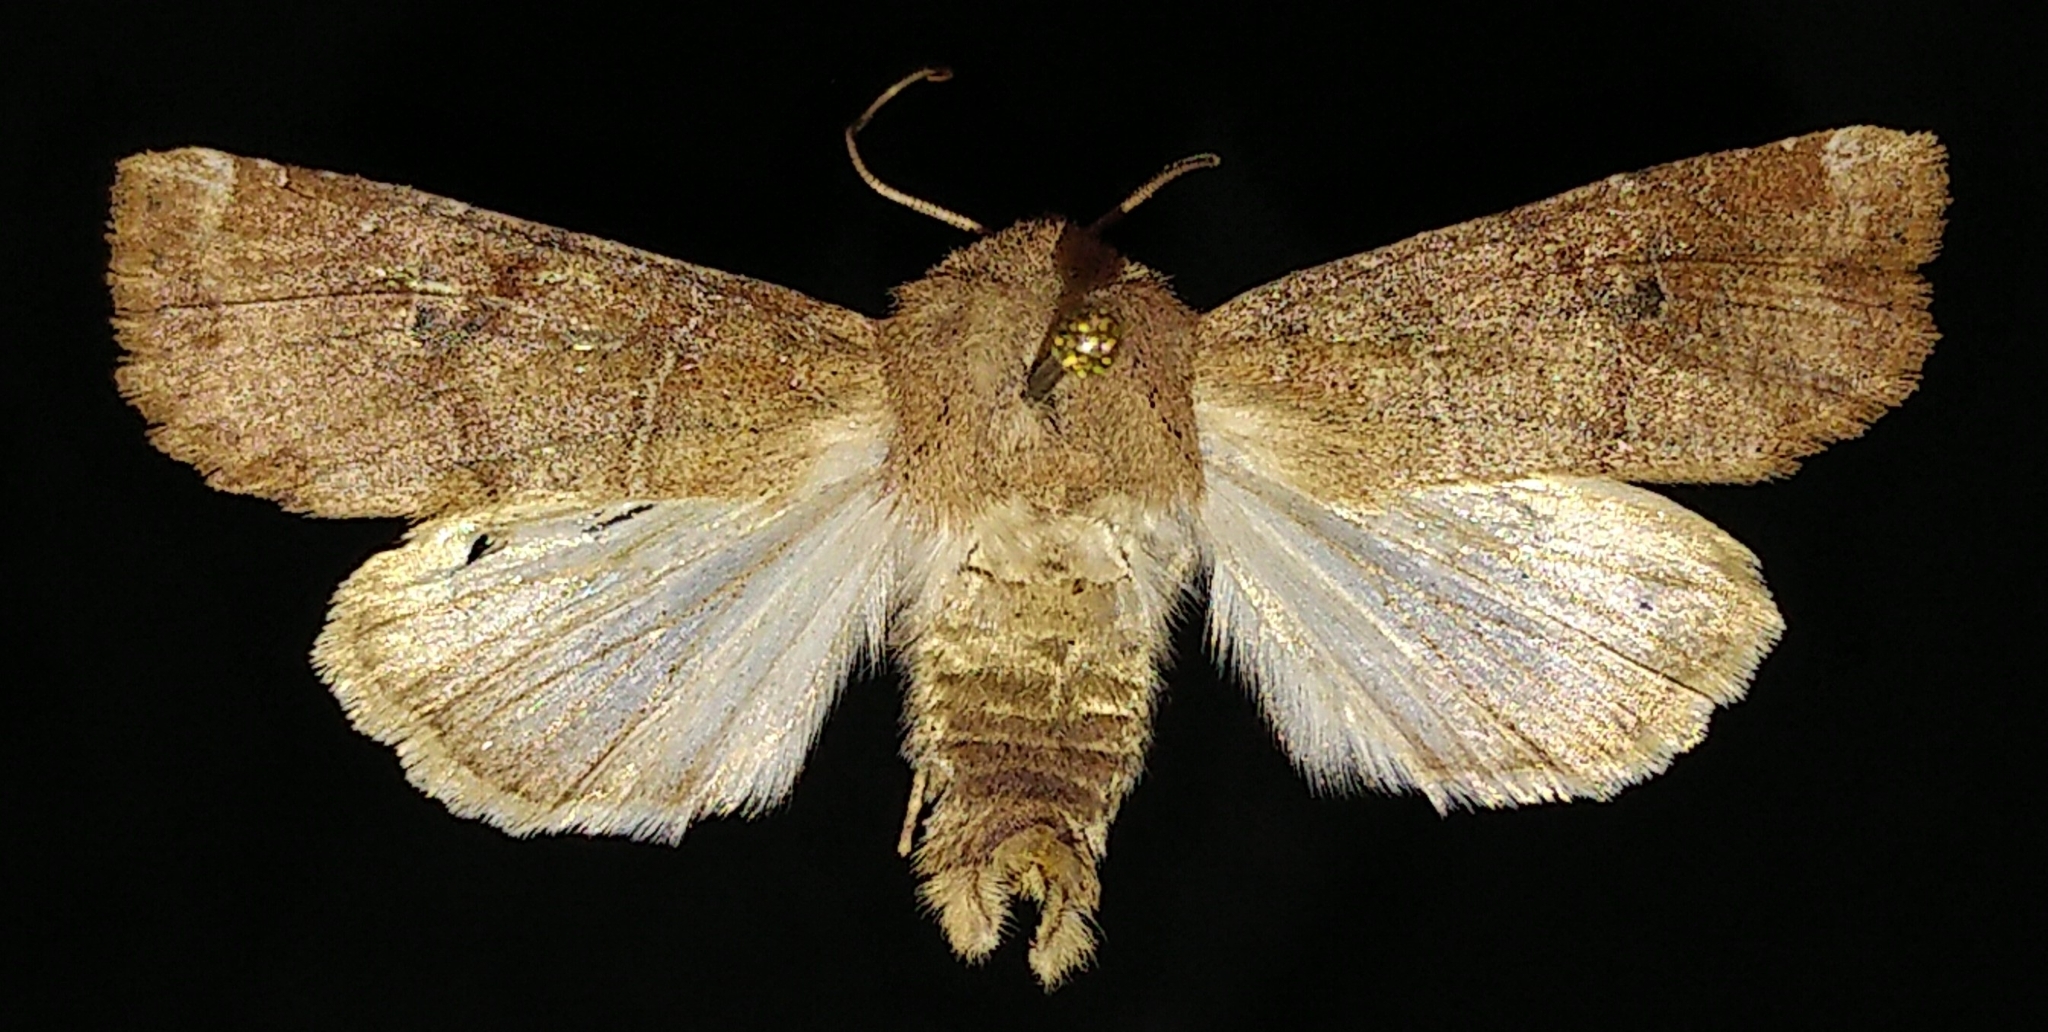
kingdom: Animalia
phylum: Arthropoda
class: Insecta
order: Lepidoptera
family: Noctuidae
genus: Crocigrapha
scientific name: Crocigrapha normani
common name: Norman's quaker
